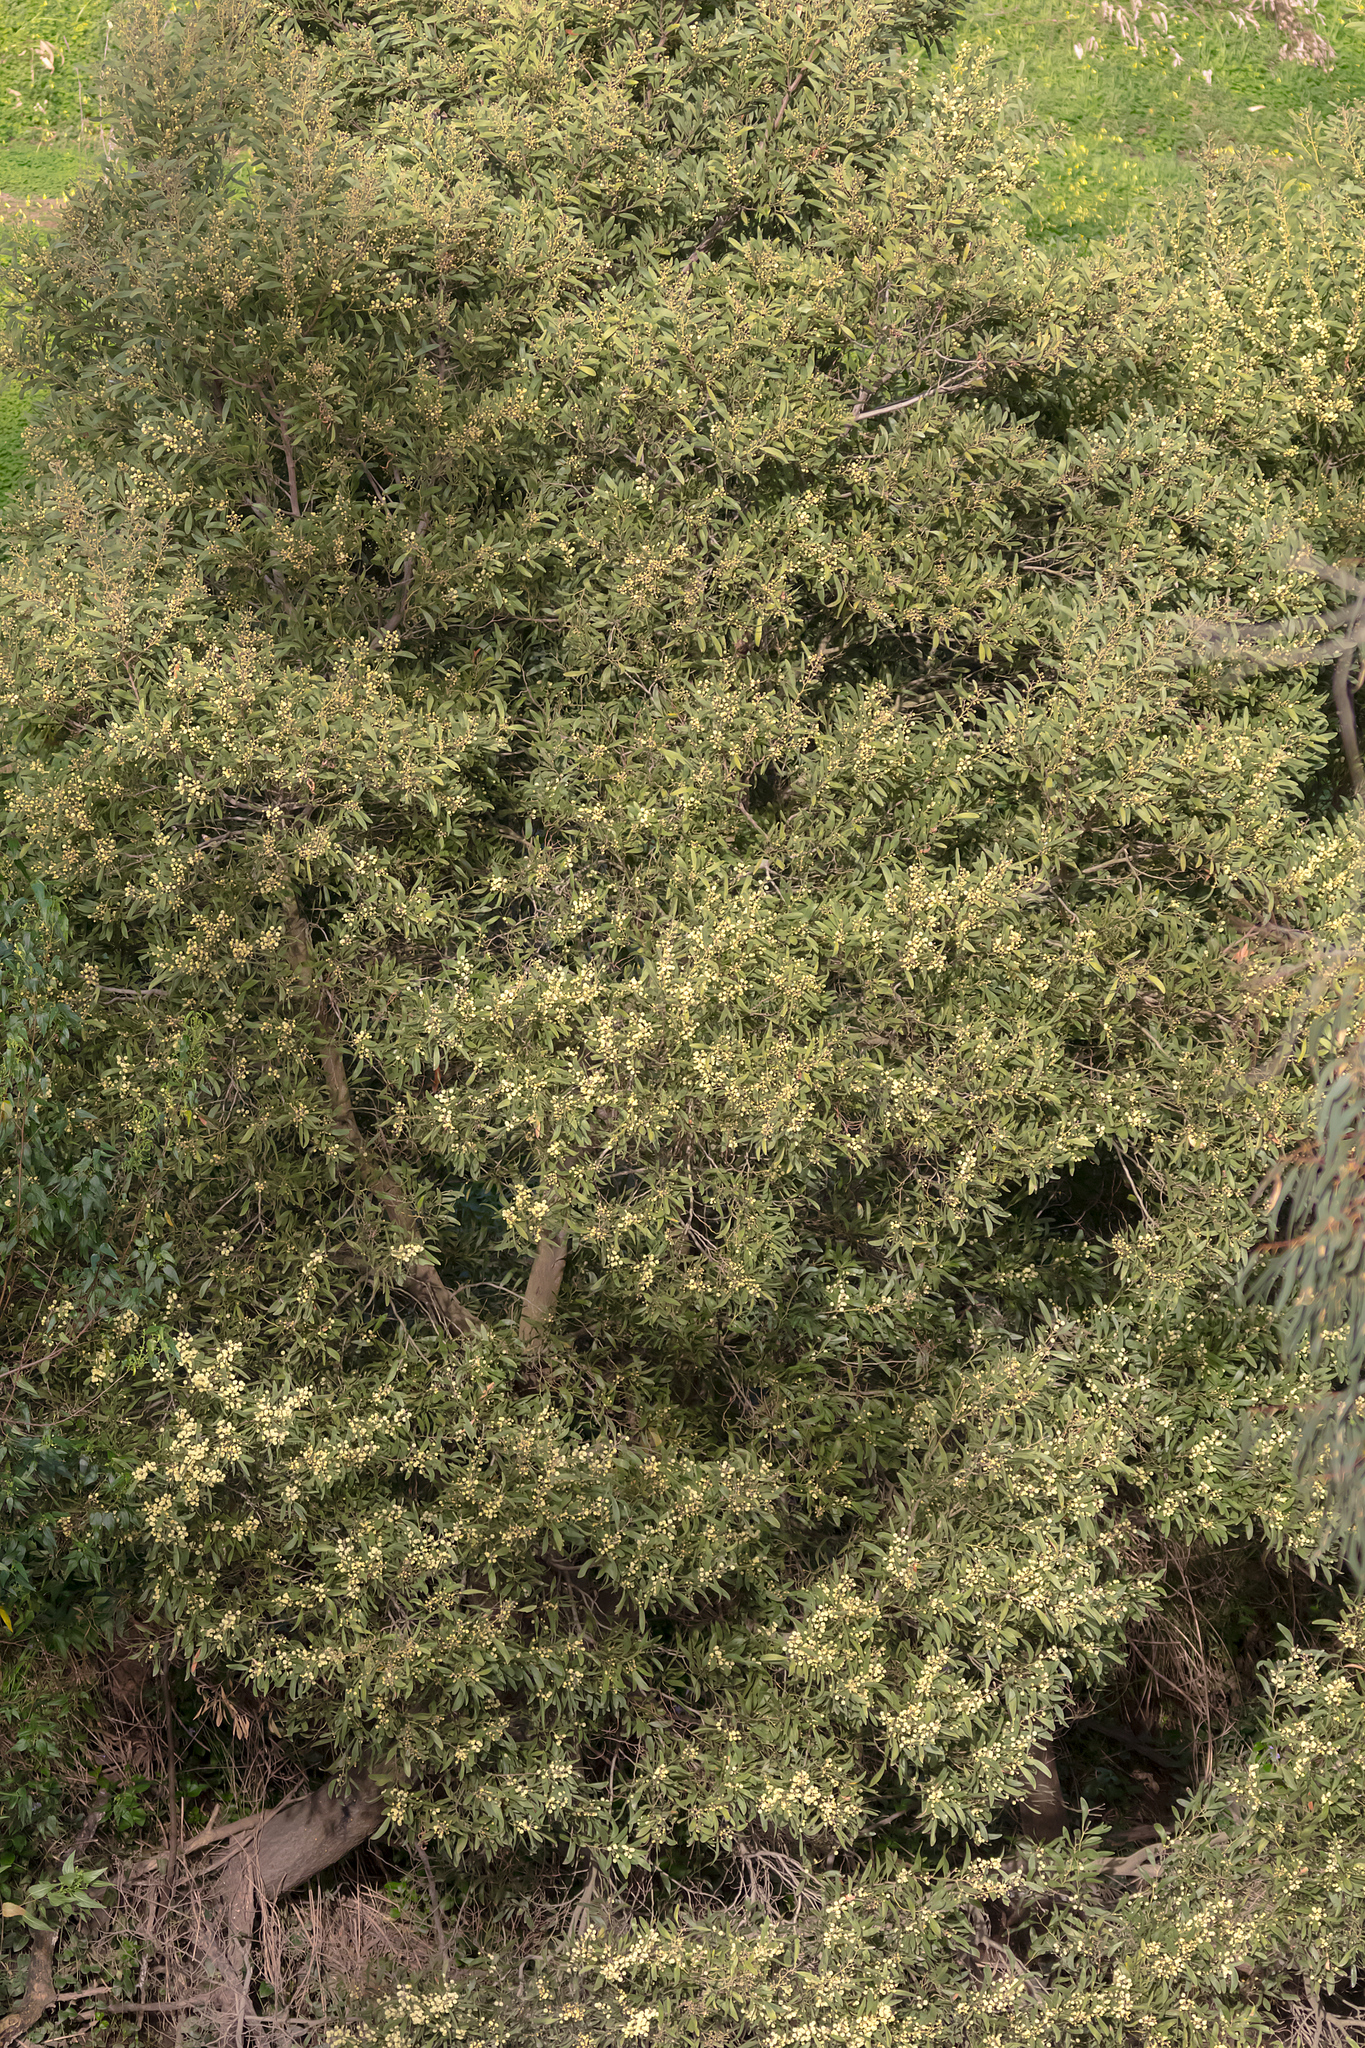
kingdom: Plantae
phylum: Tracheophyta
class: Magnoliopsida
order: Fabales
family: Fabaceae
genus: Acacia
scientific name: Acacia melanoxylon
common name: Blackwood
